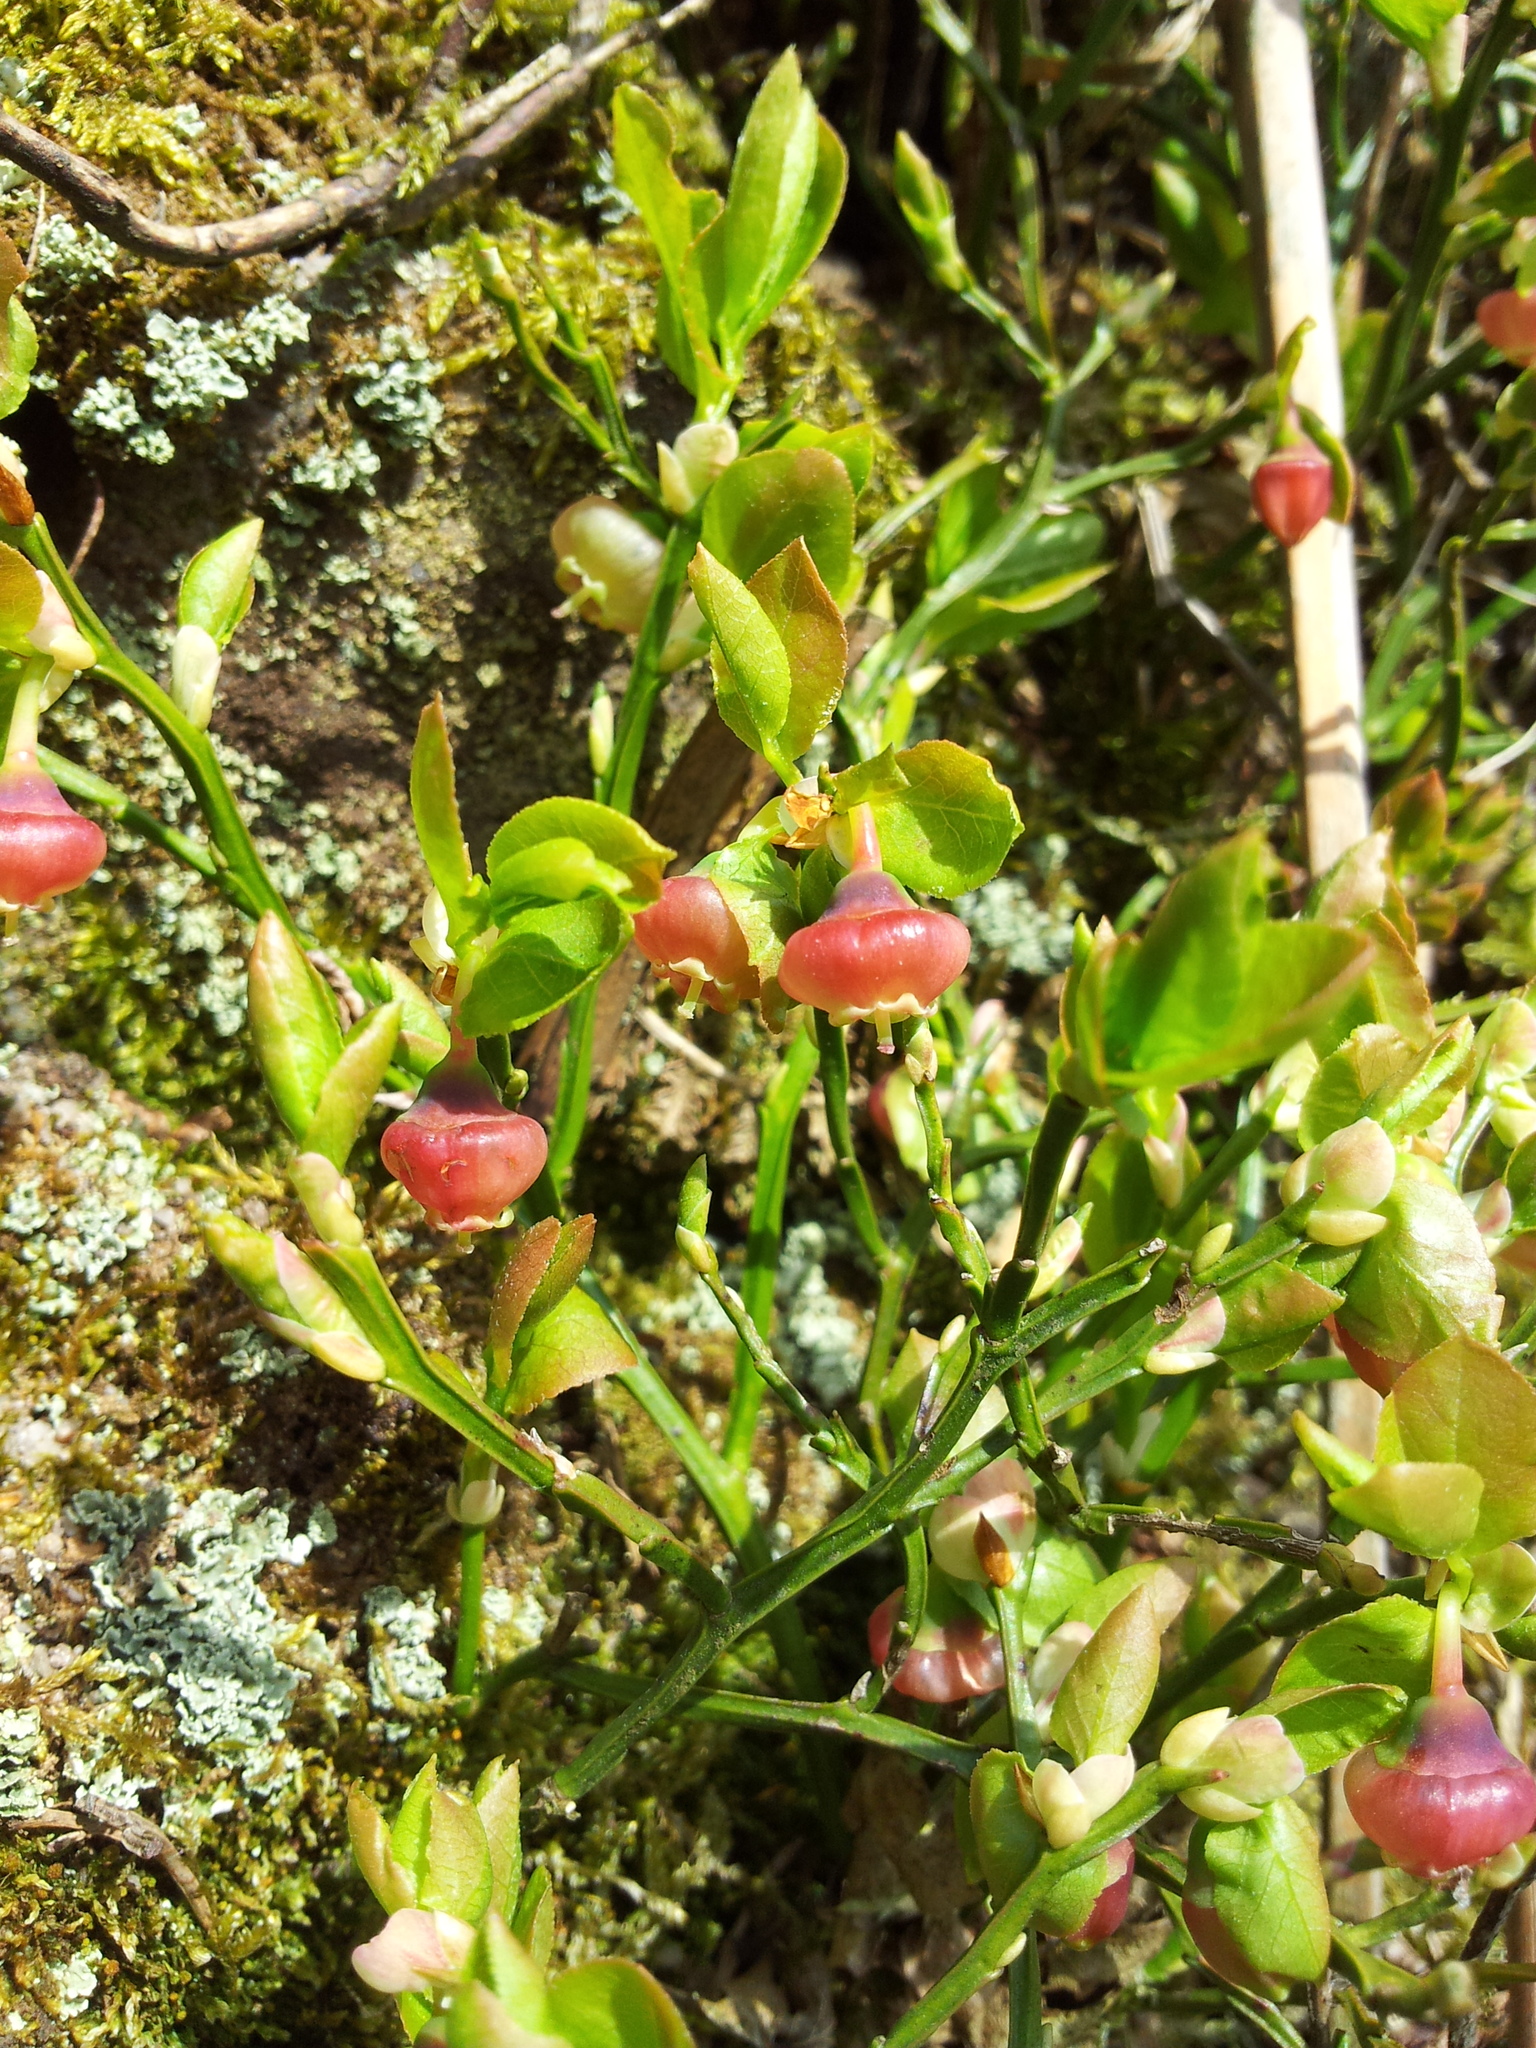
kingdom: Plantae
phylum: Tracheophyta
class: Magnoliopsida
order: Ericales
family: Ericaceae
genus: Vaccinium
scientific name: Vaccinium myrtillus
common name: Bilberry
